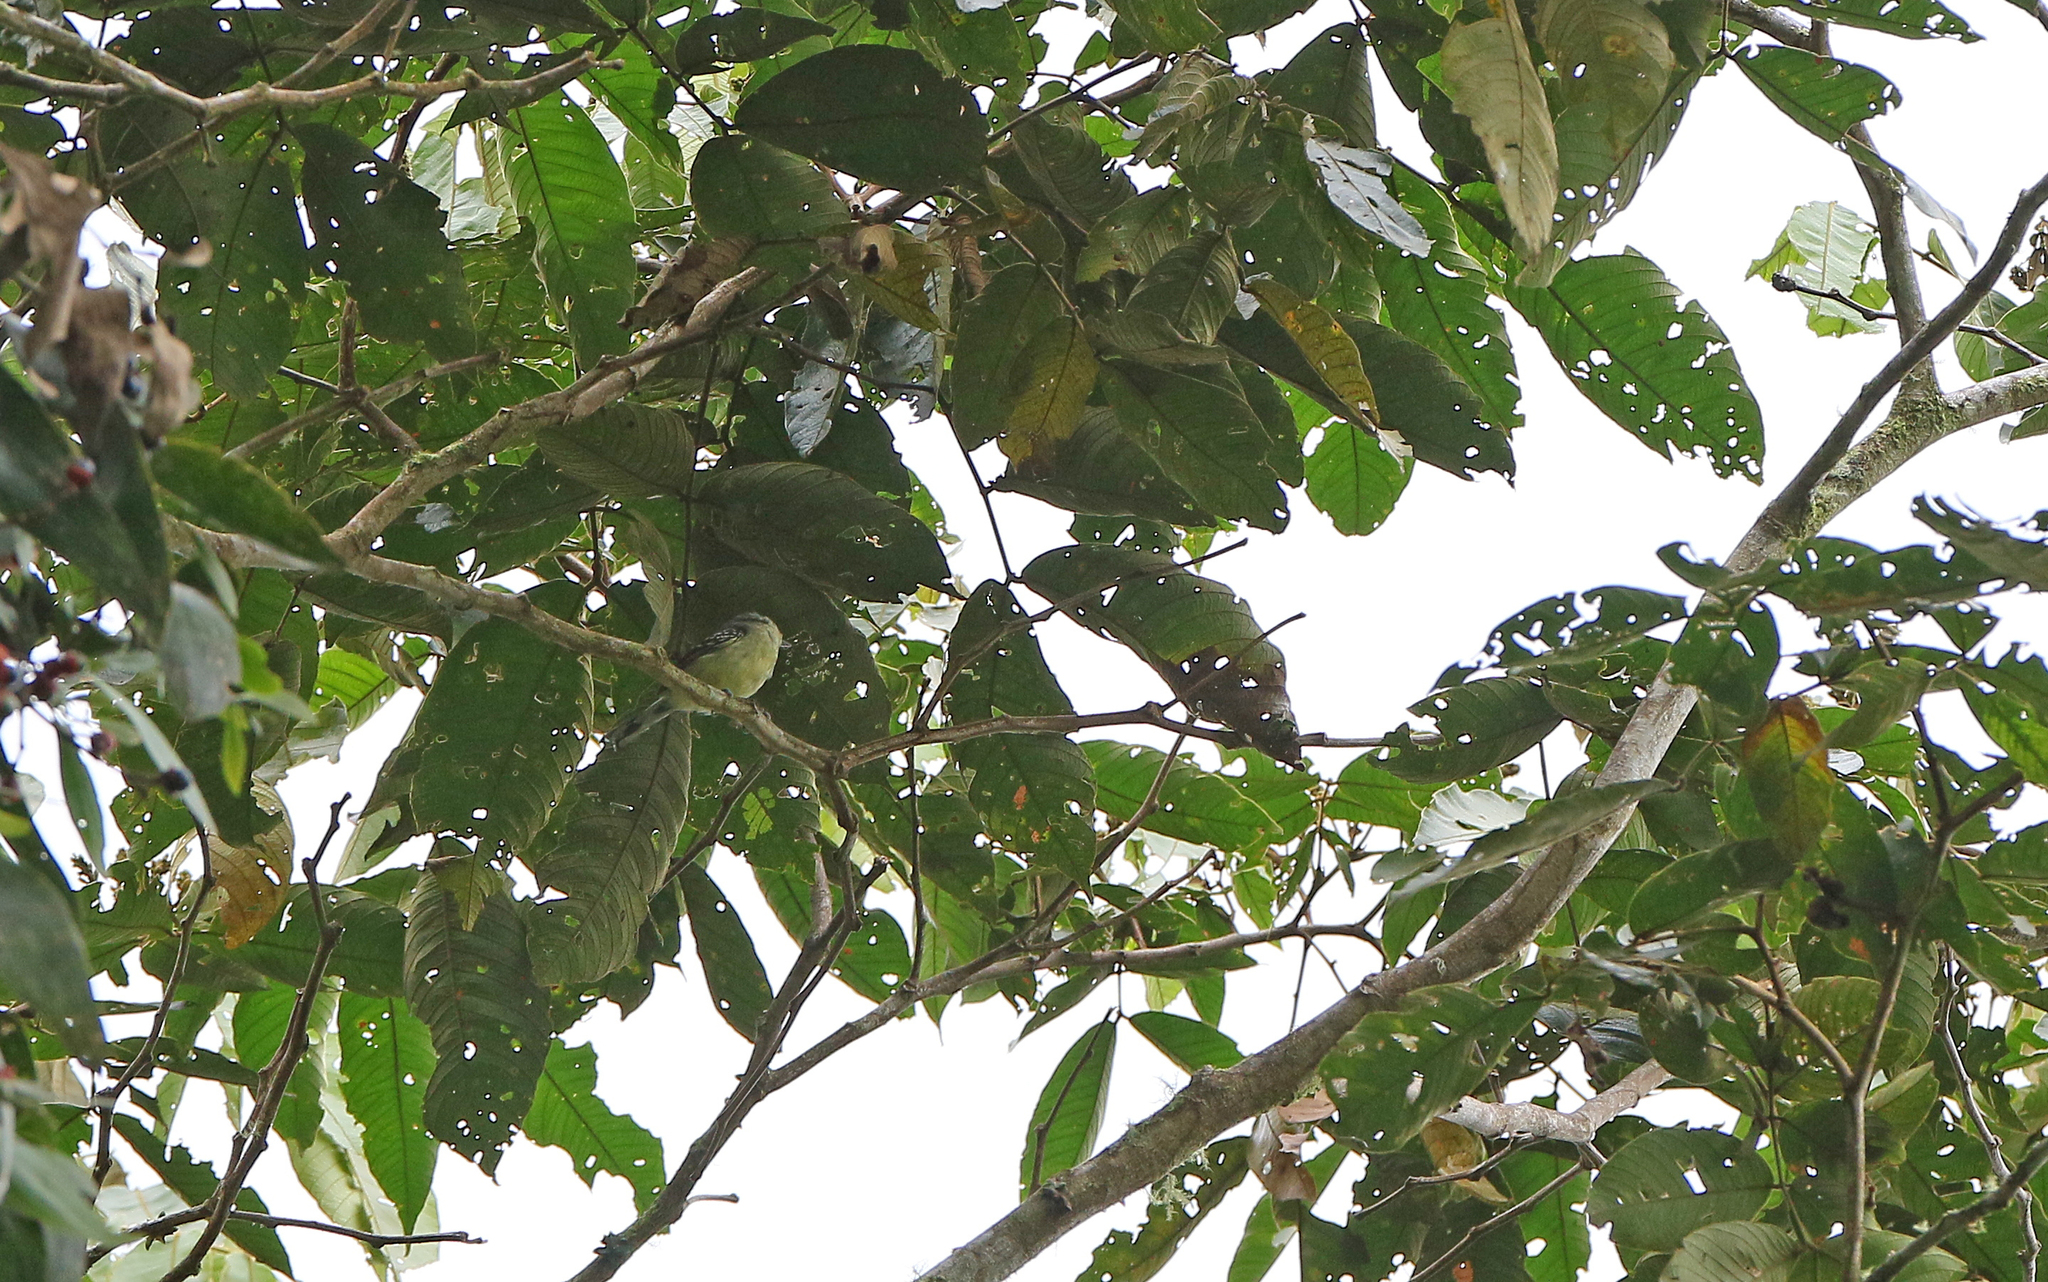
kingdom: Animalia
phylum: Chordata
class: Aves
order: Passeriformes
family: Thamnophilidae
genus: Herpsilochmus
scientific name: Herpsilochmus axillaris
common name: Yellow-breasted antwren
